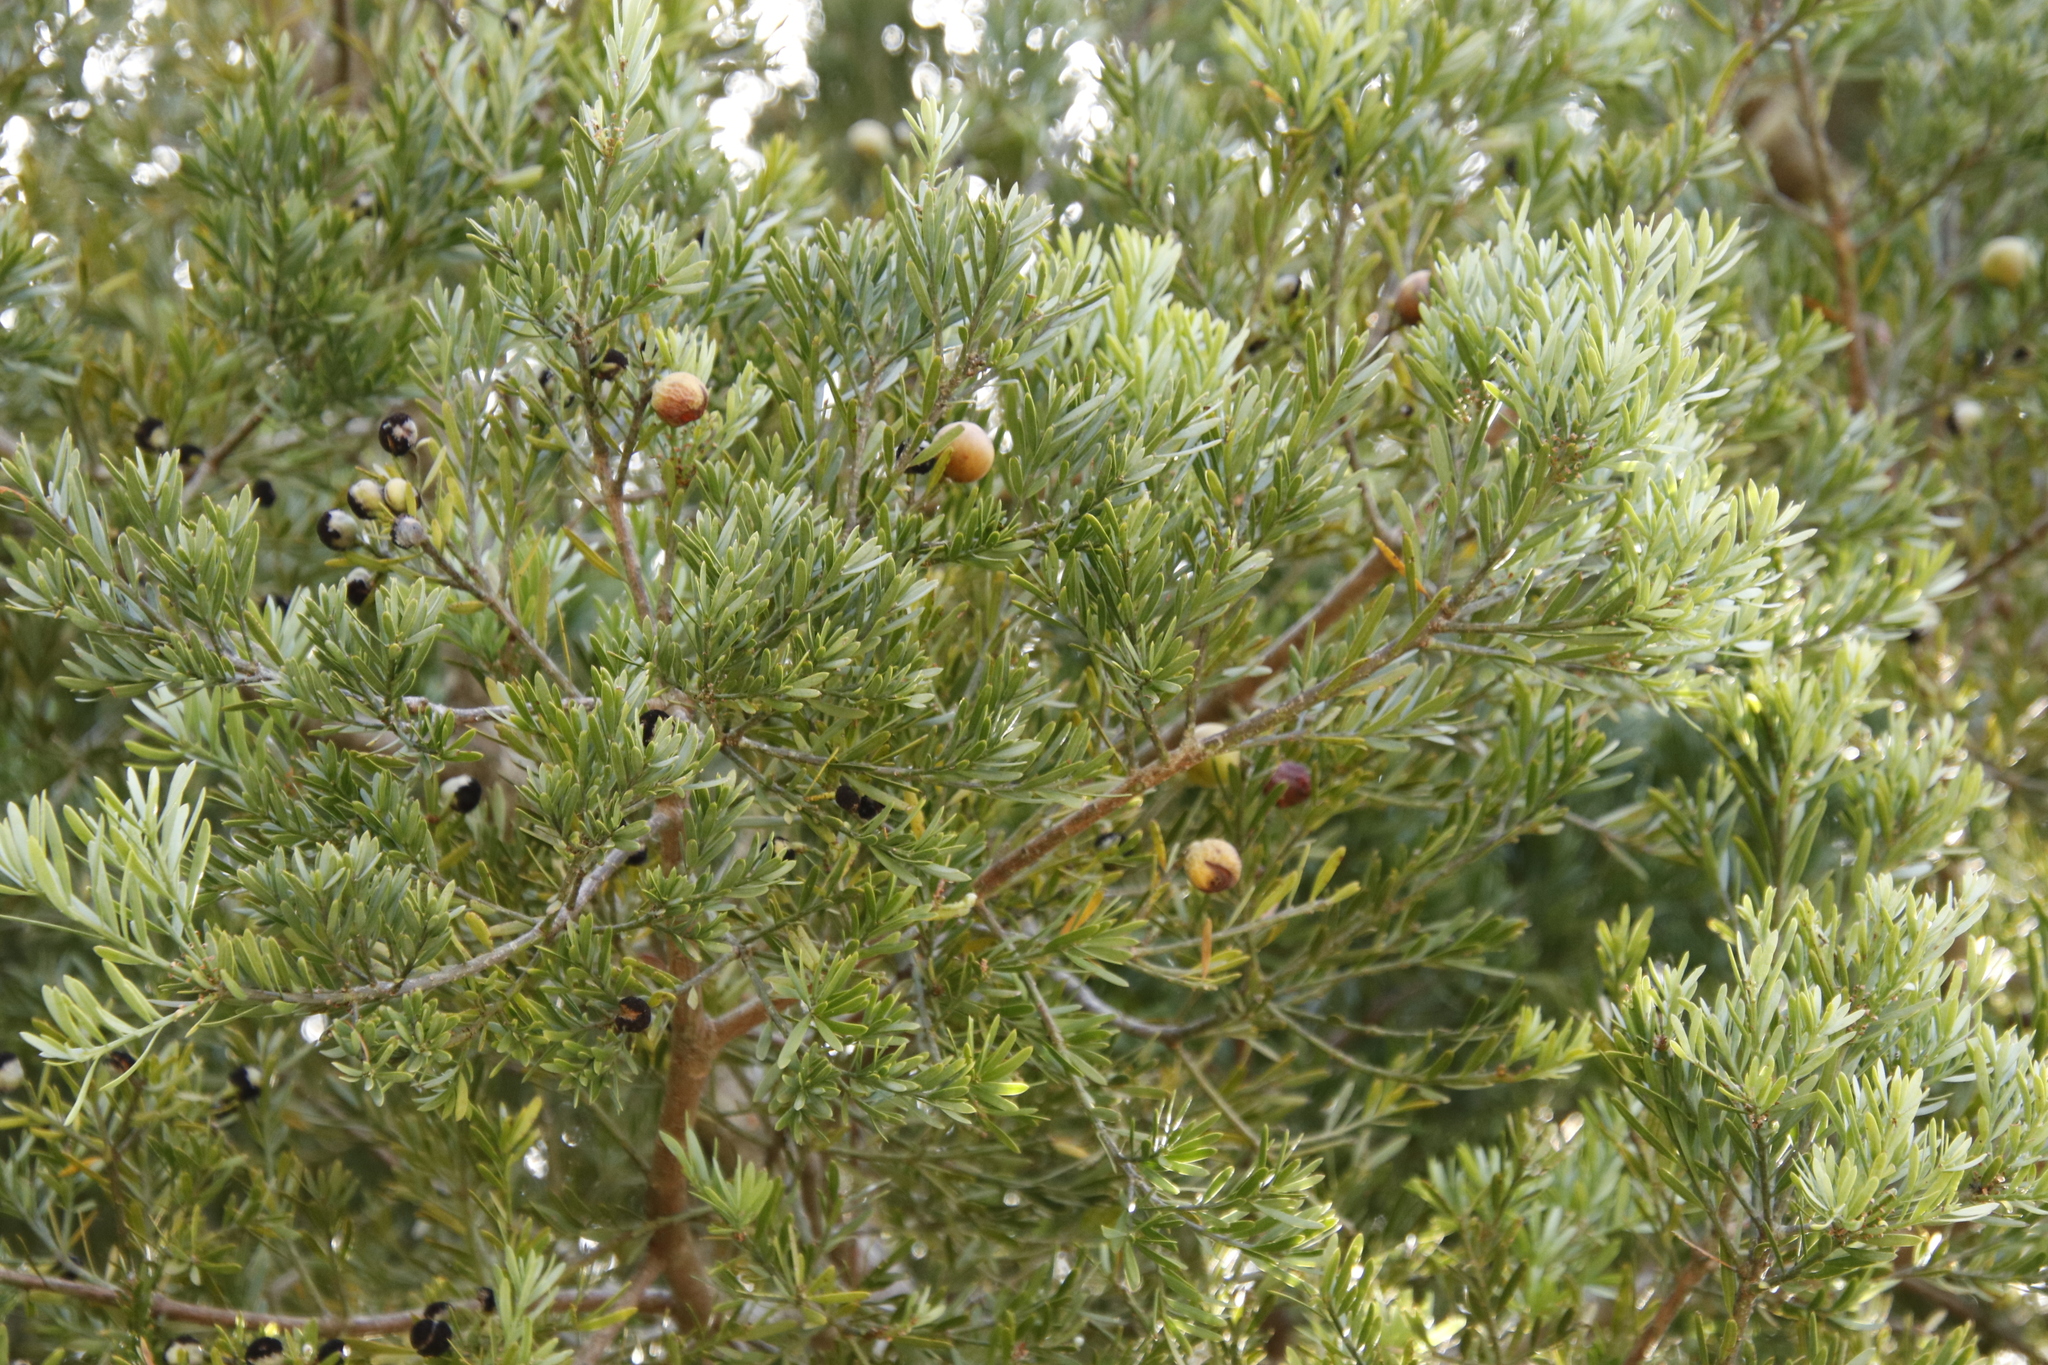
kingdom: Plantae
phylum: Tracheophyta
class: Pinopsida
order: Pinales
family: Podocarpaceae
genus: Afrocarpus
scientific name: Afrocarpus falcatus
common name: Bastard yellowwood
